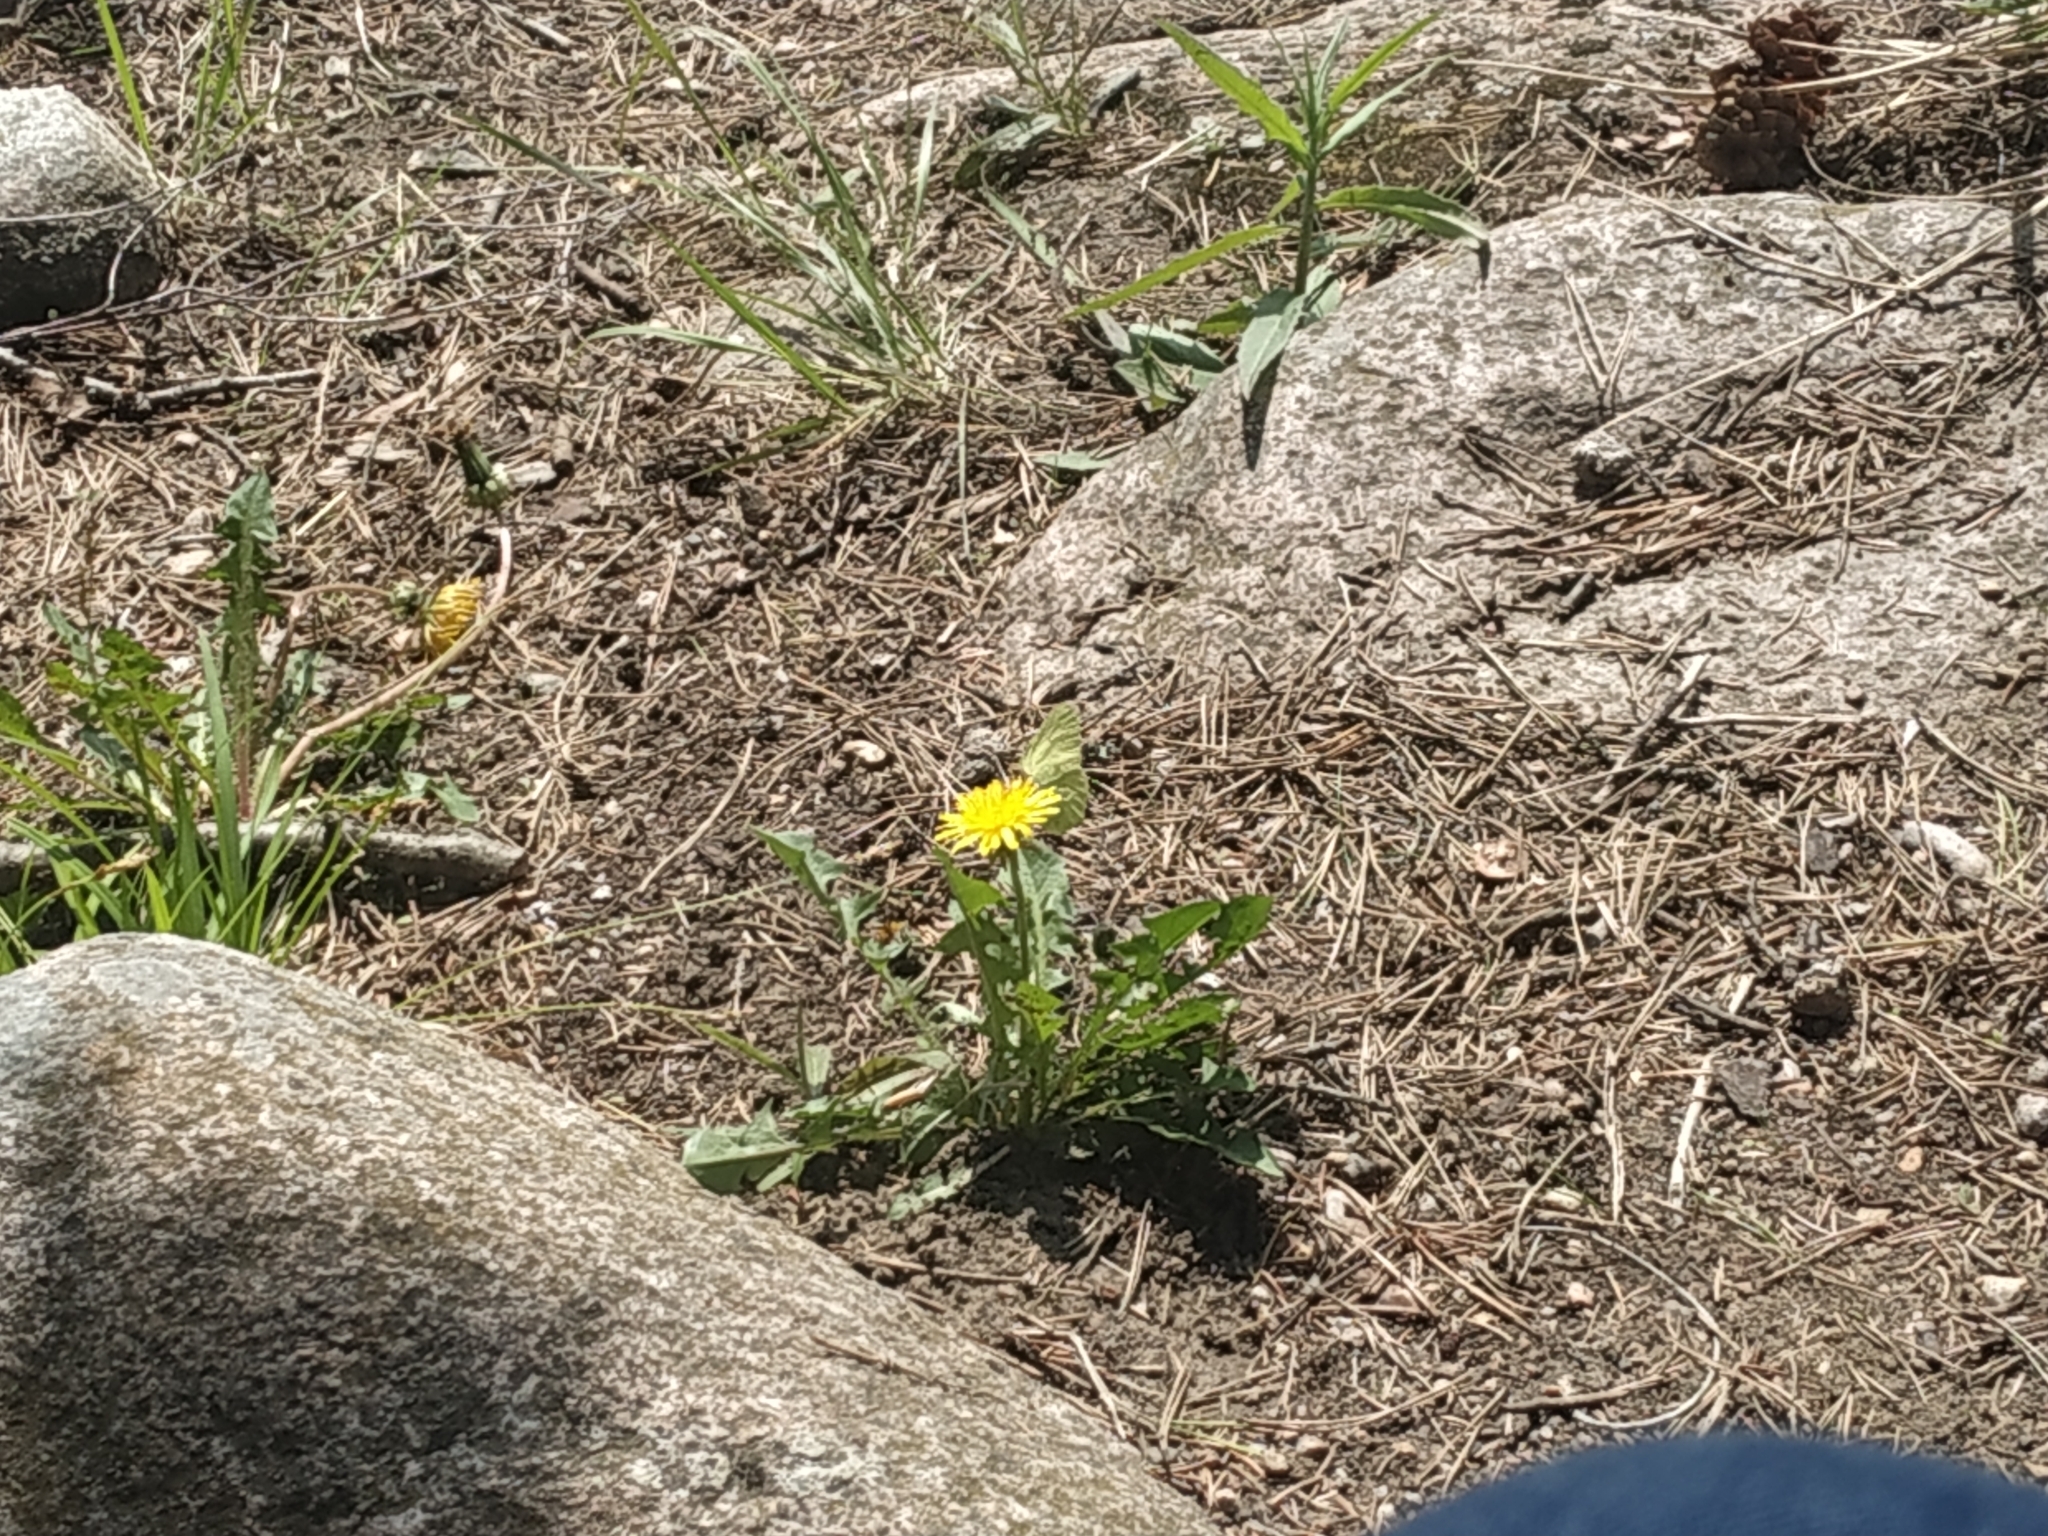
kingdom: Animalia
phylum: Arthropoda
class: Insecta
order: Lepidoptera
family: Pieridae
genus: Gonepteryx
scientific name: Gonepteryx rhamni
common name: Brimstone
